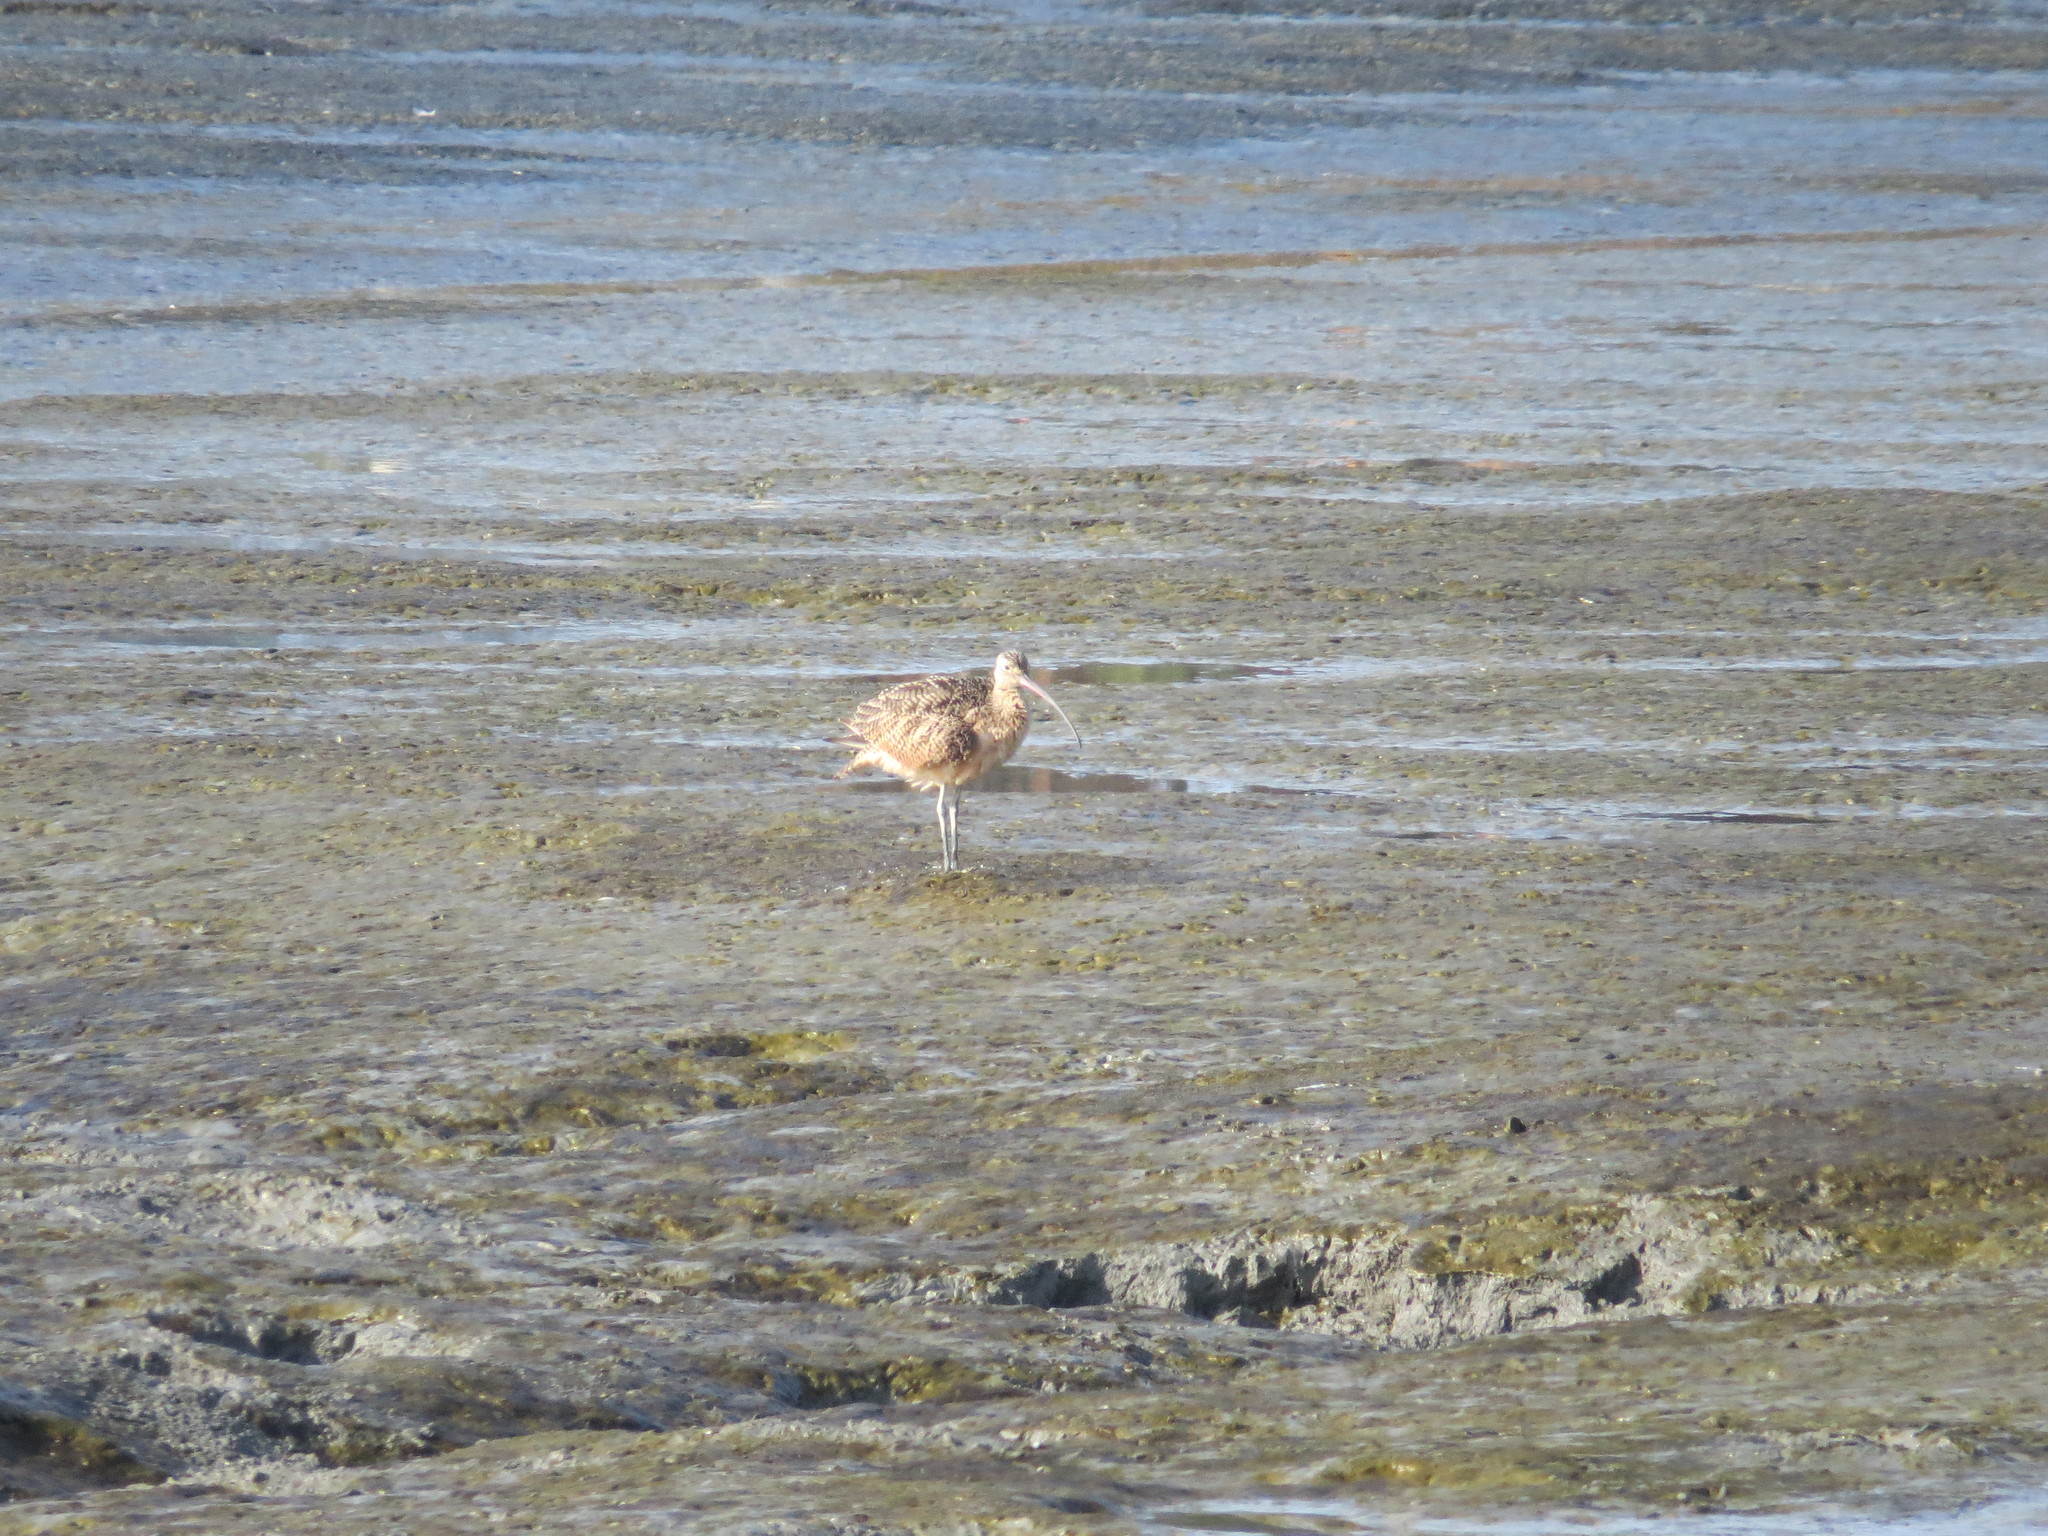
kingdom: Animalia
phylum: Chordata
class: Aves
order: Charadriiformes
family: Scolopacidae
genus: Numenius
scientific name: Numenius americanus
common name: Long-billed curlew
